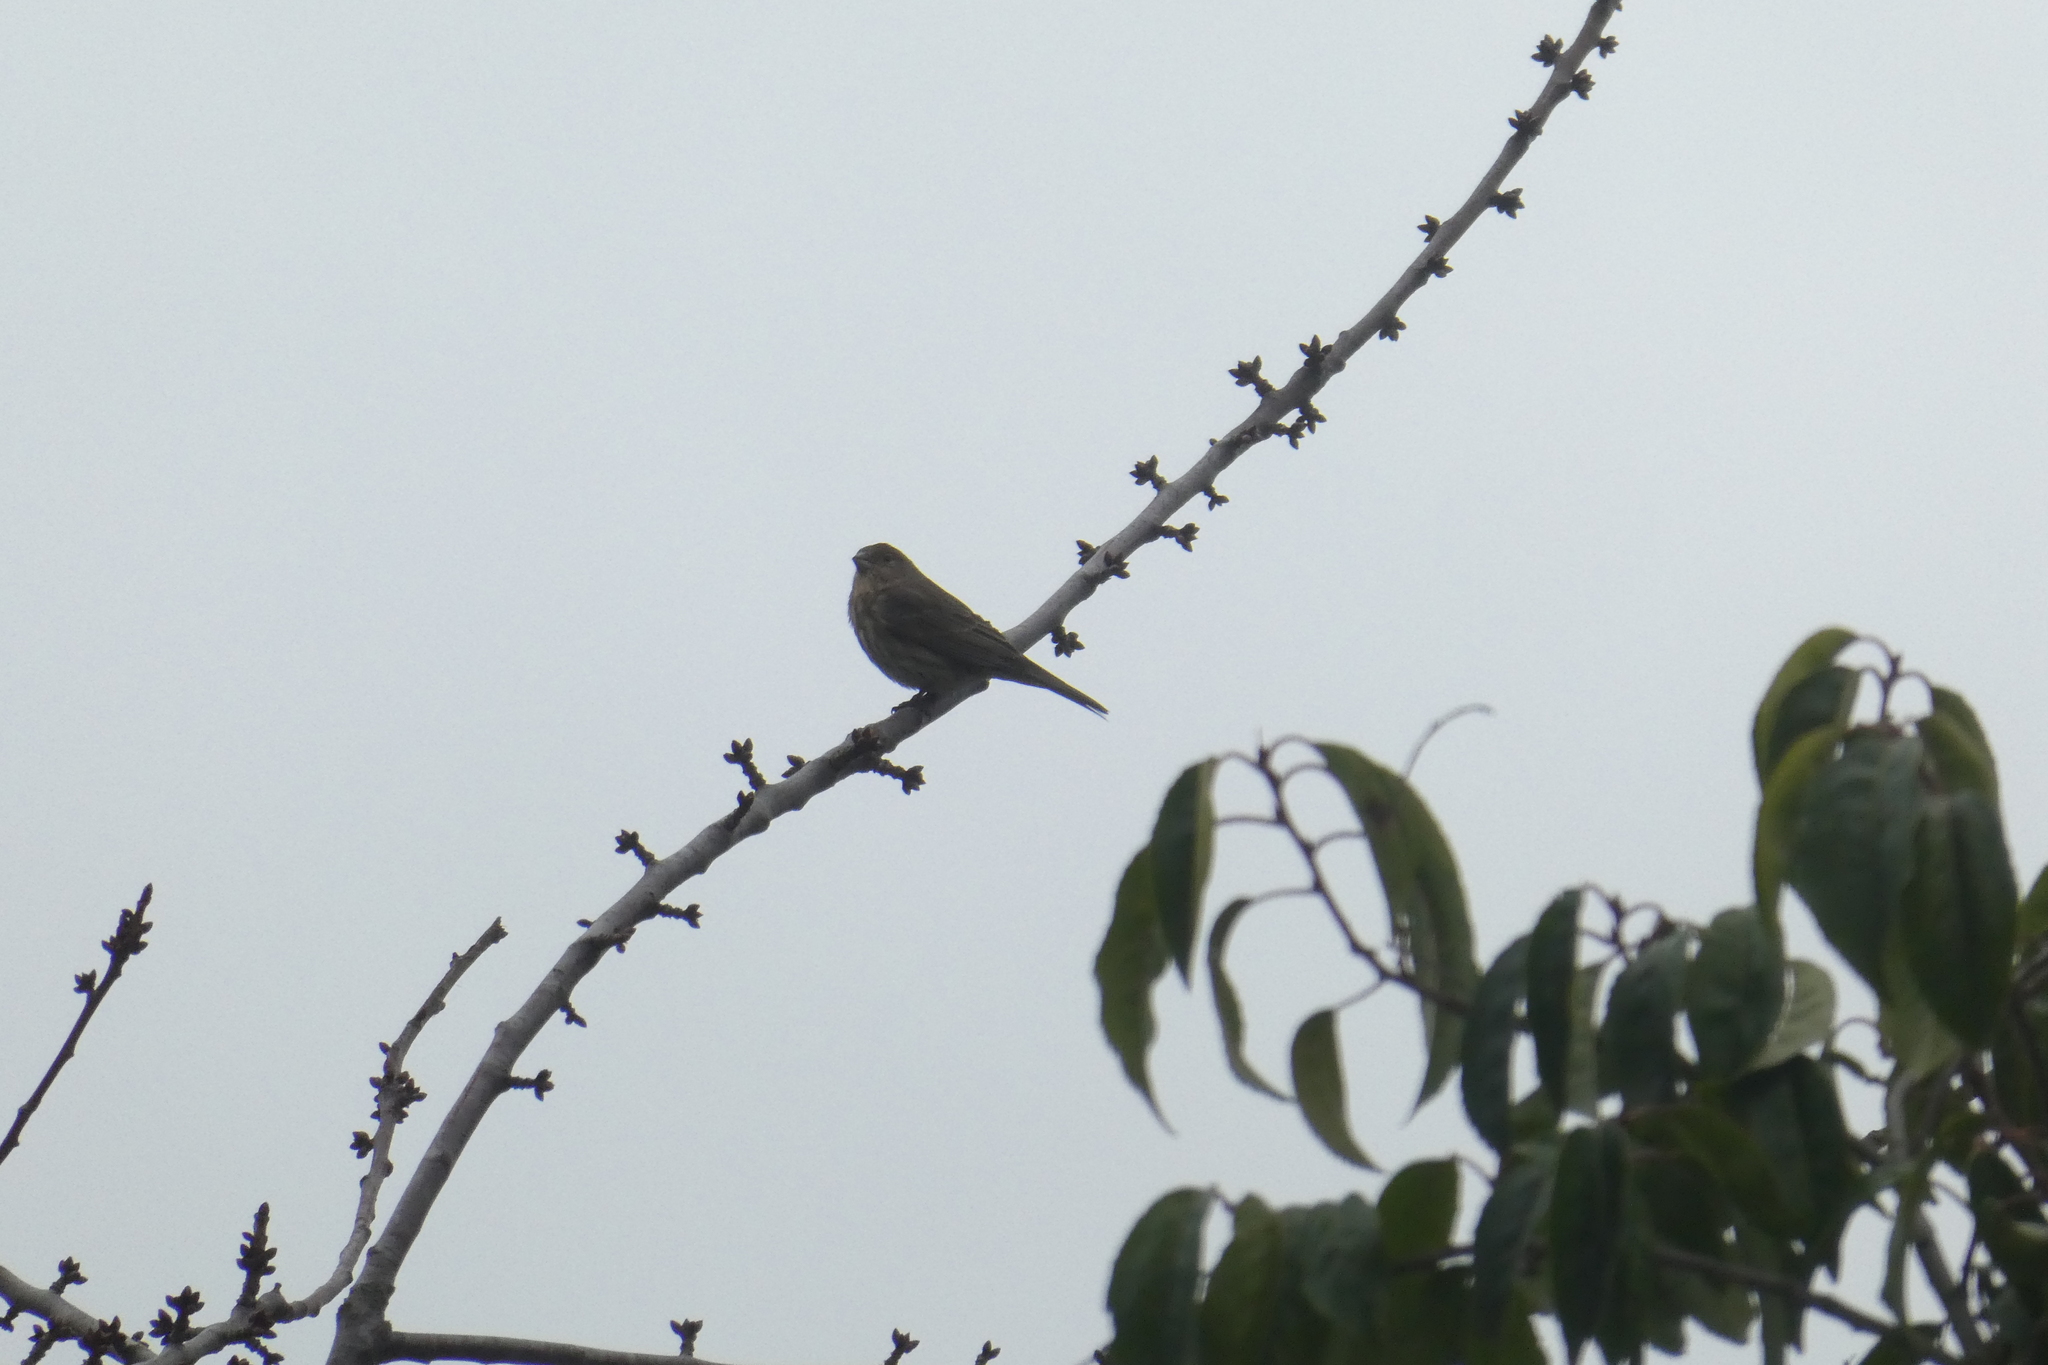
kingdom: Animalia
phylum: Chordata
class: Aves
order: Passeriformes
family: Fringillidae
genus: Haemorhous
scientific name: Haemorhous mexicanus
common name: House finch
